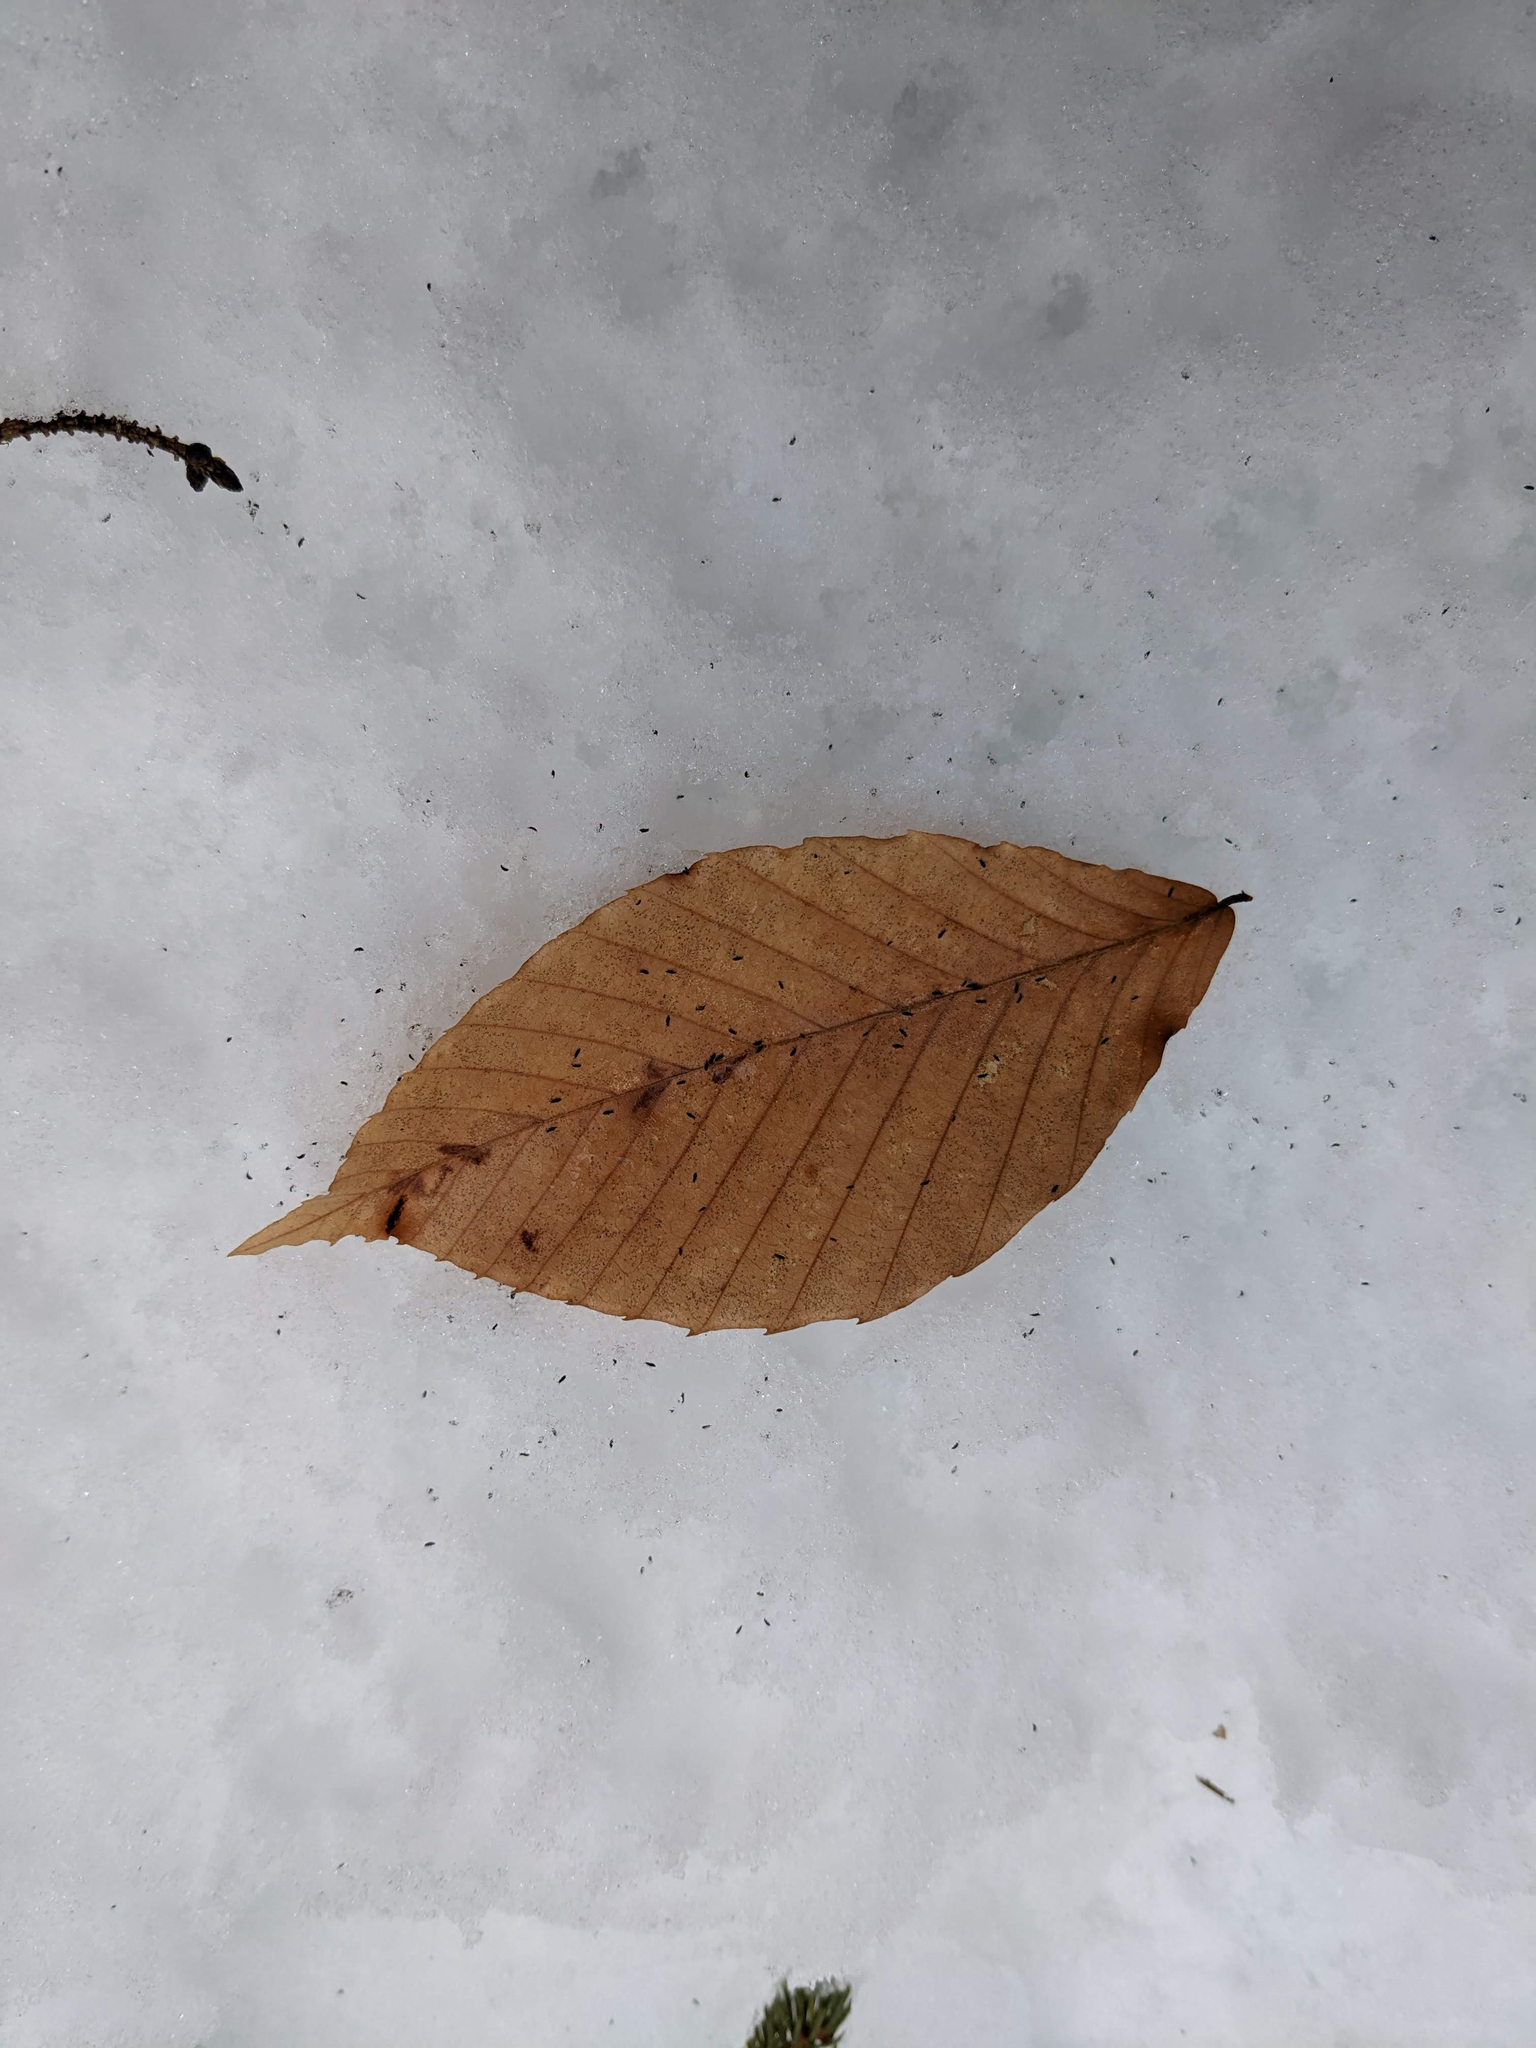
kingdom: Plantae
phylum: Tracheophyta
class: Magnoliopsida
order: Fagales
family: Fagaceae
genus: Fagus
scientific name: Fagus grandifolia
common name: American beech
